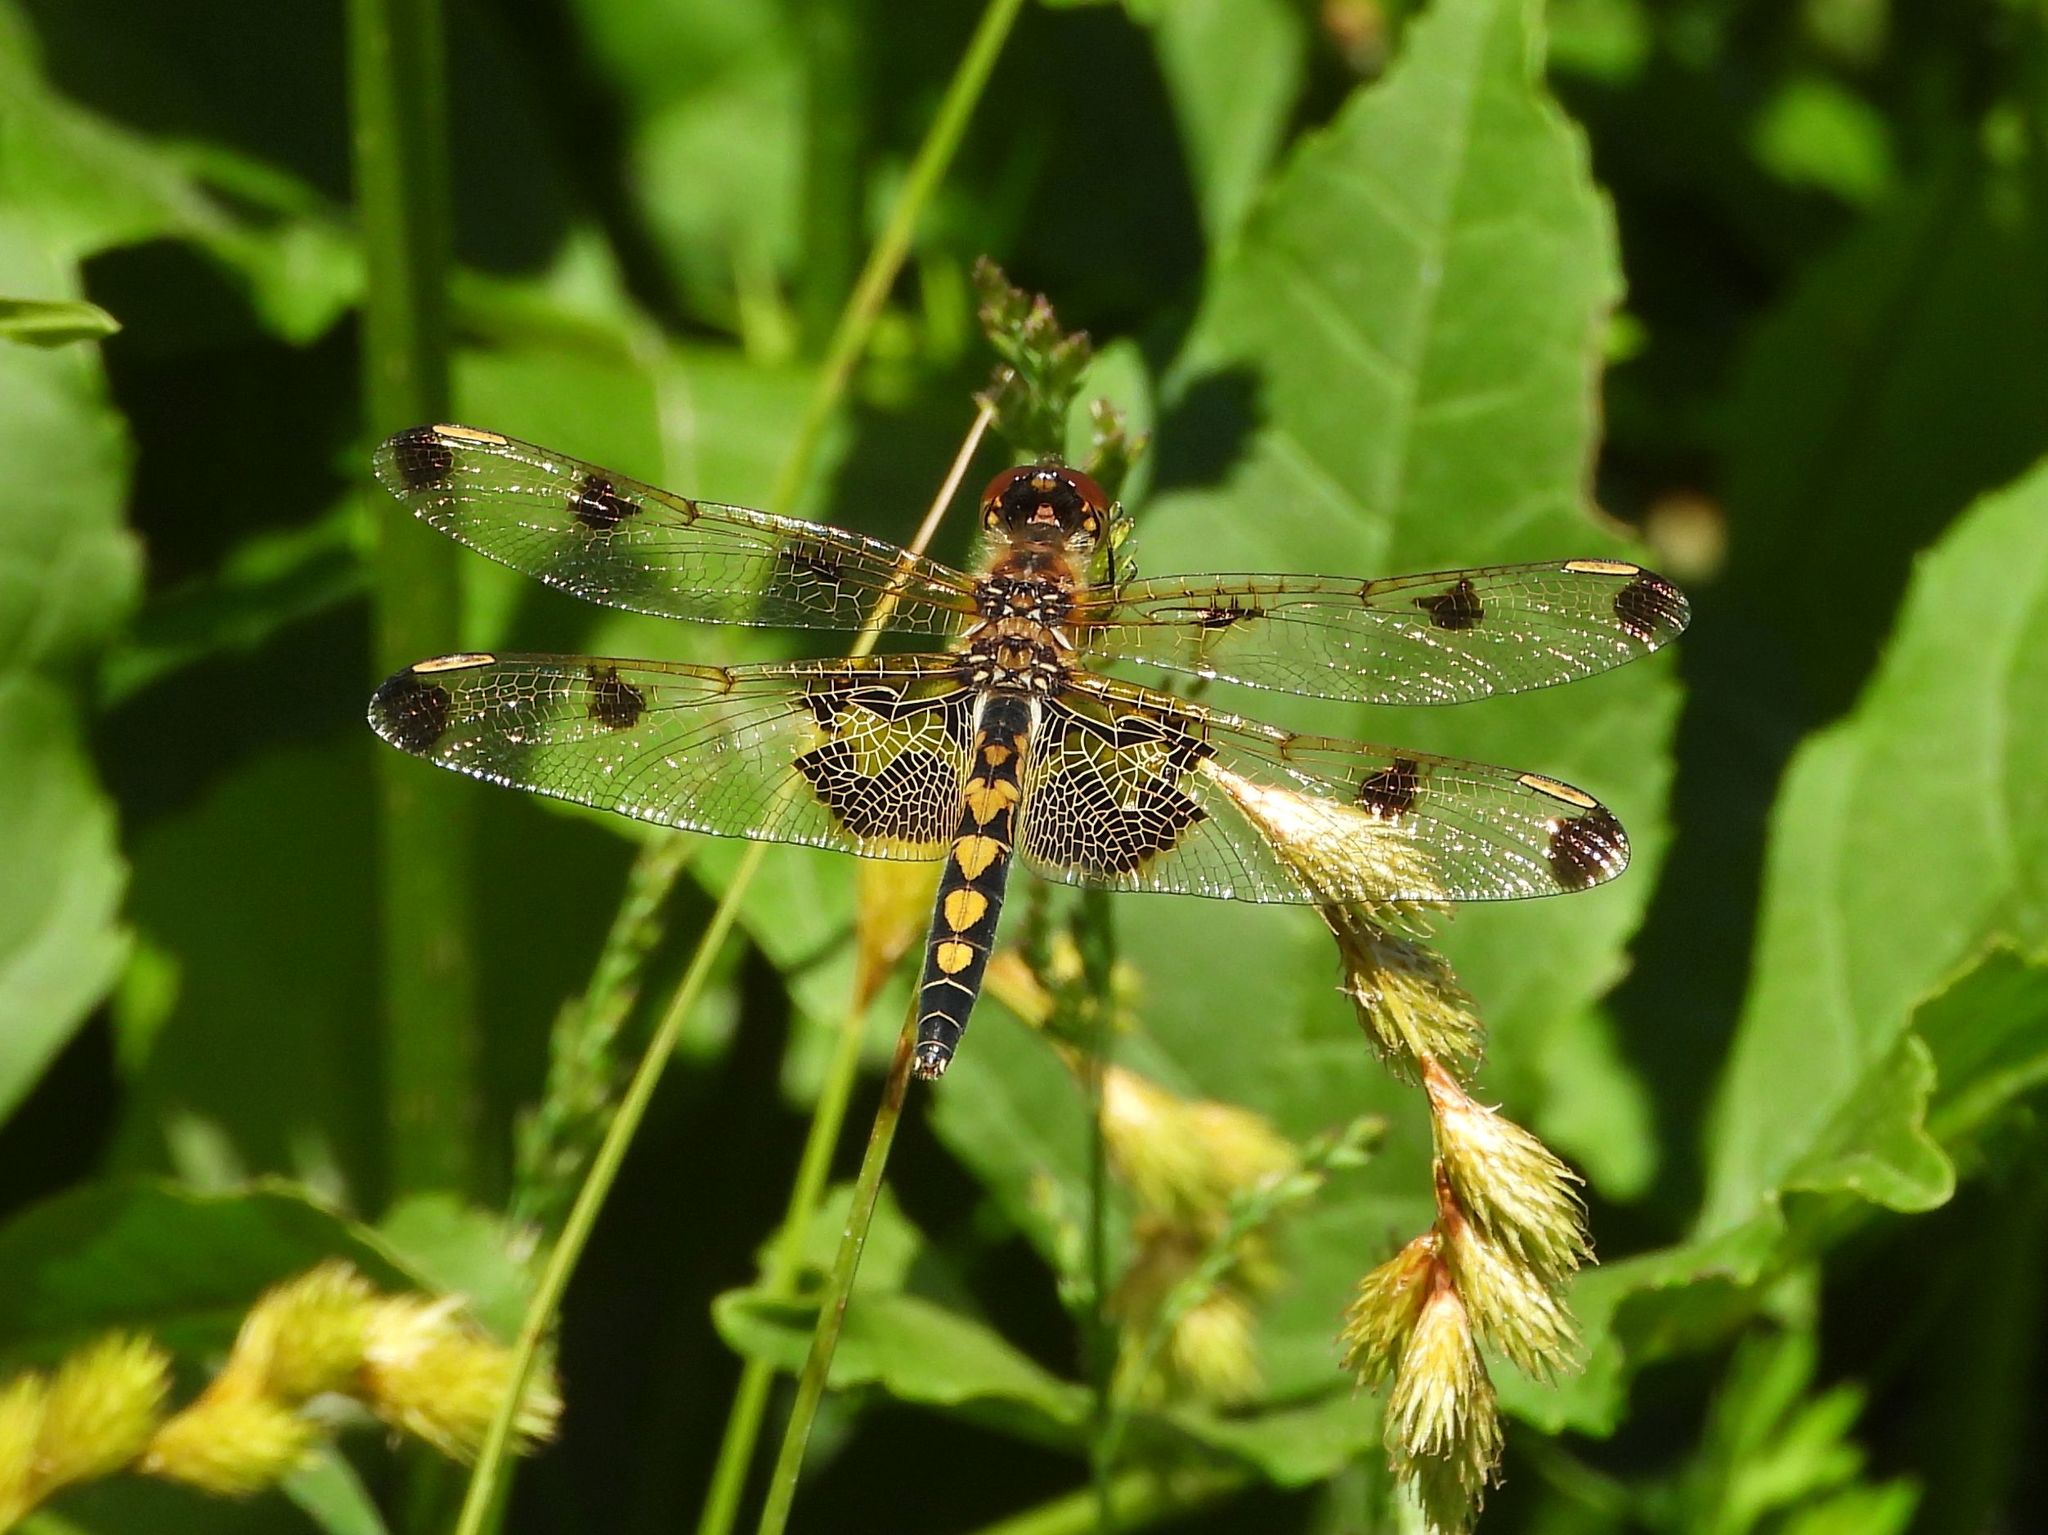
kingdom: Animalia
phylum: Arthropoda
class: Insecta
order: Odonata
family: Libellulidae
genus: Celithemis
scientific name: Celithemis elisa
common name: Calico pennant
